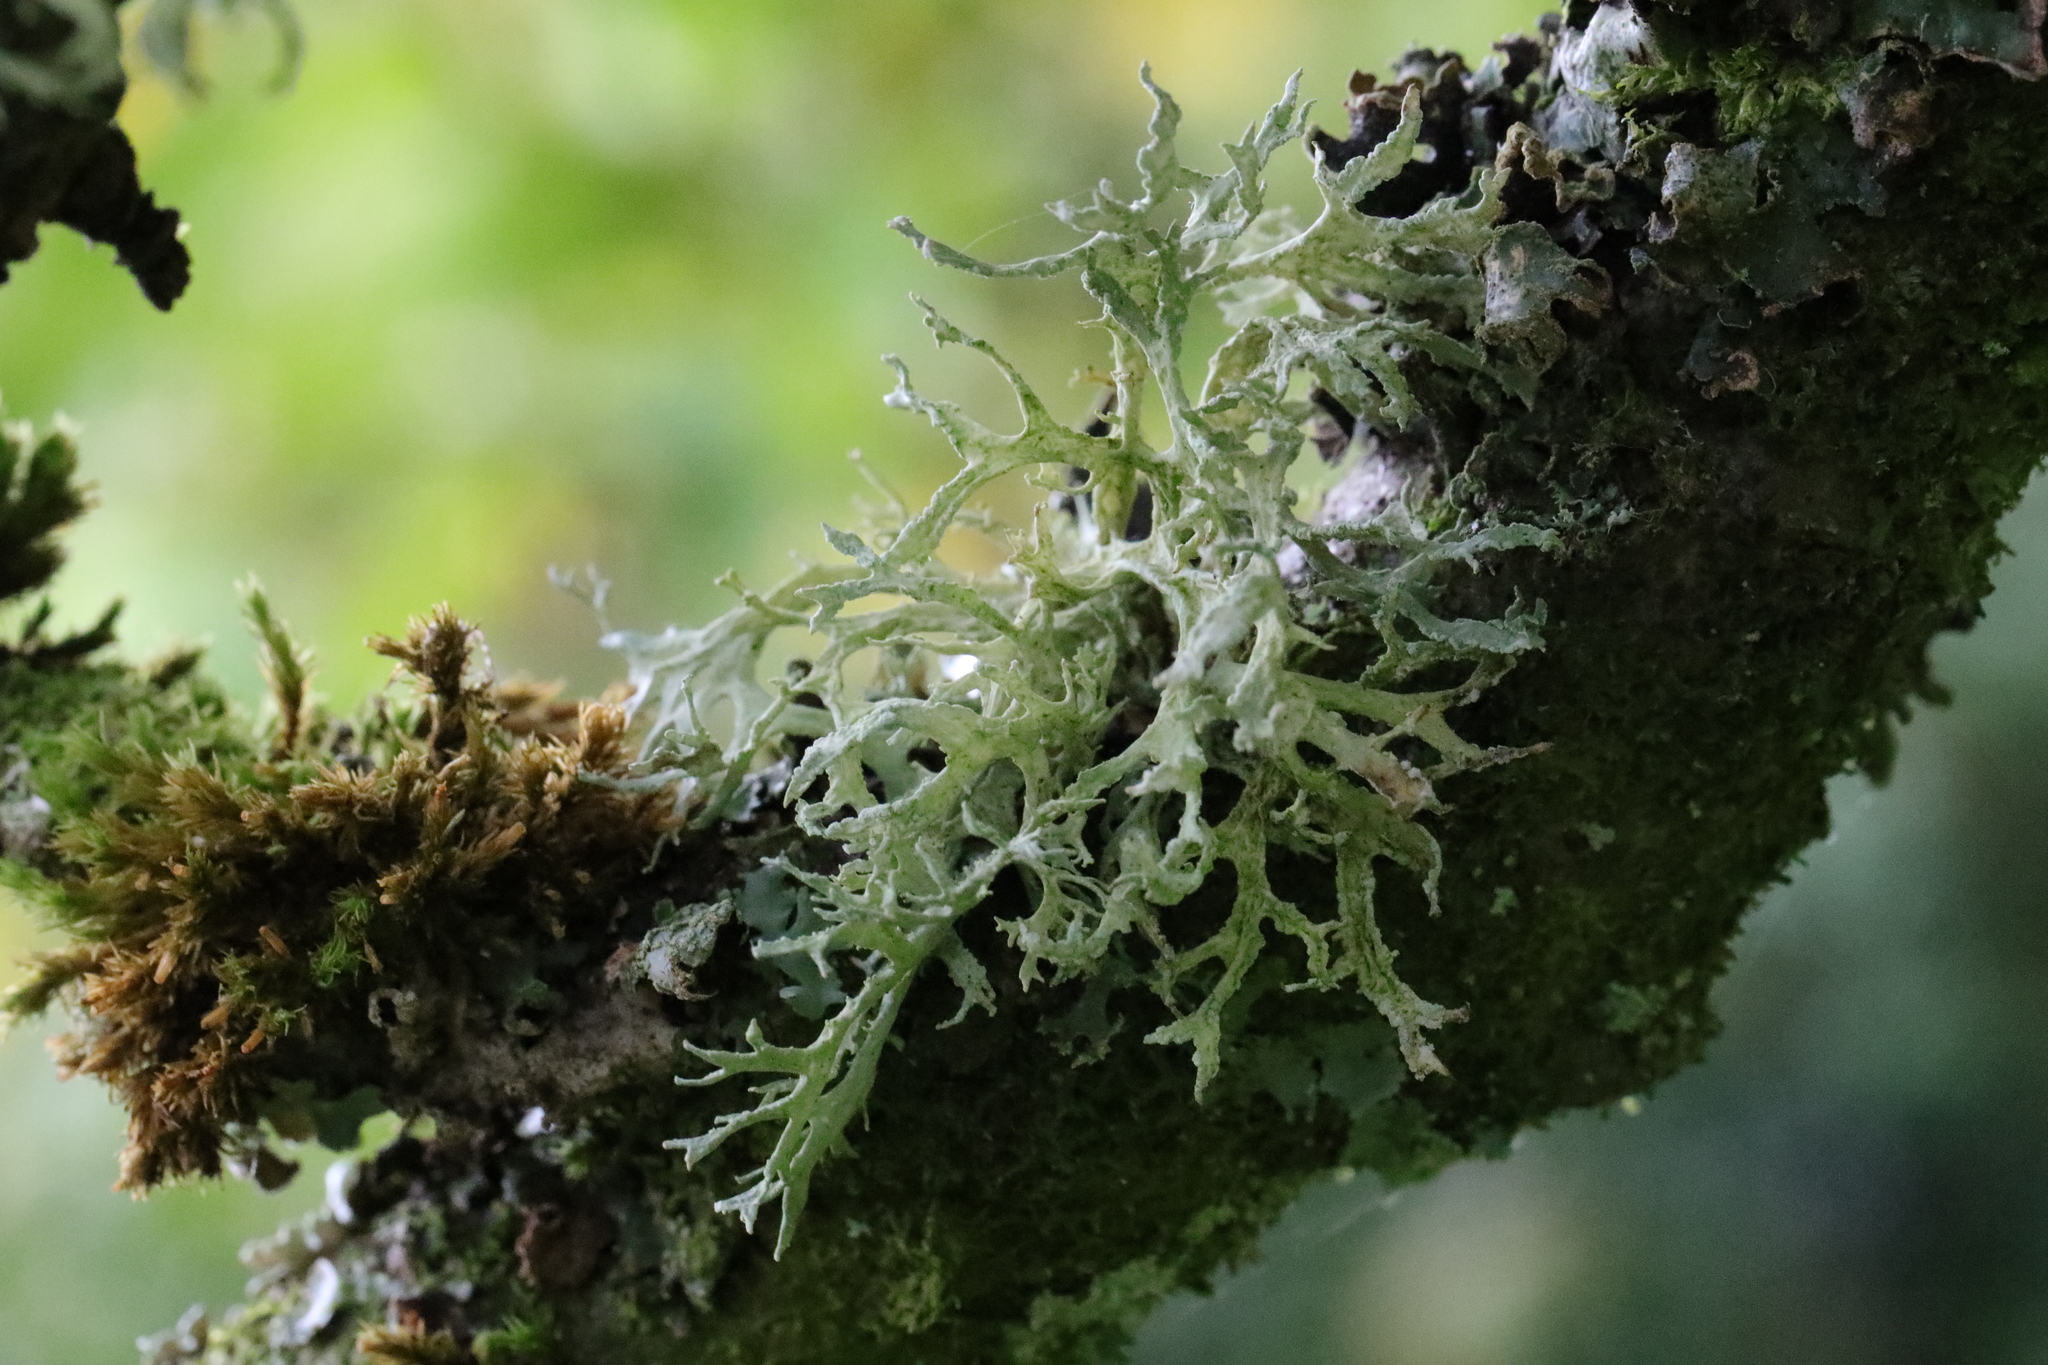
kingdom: Fungi
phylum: Ascomycota
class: Lecanoromycetes
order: Lecanorales
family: Parmeliaceae
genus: Evernia
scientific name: Evernia prunastri
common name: Oak moss
